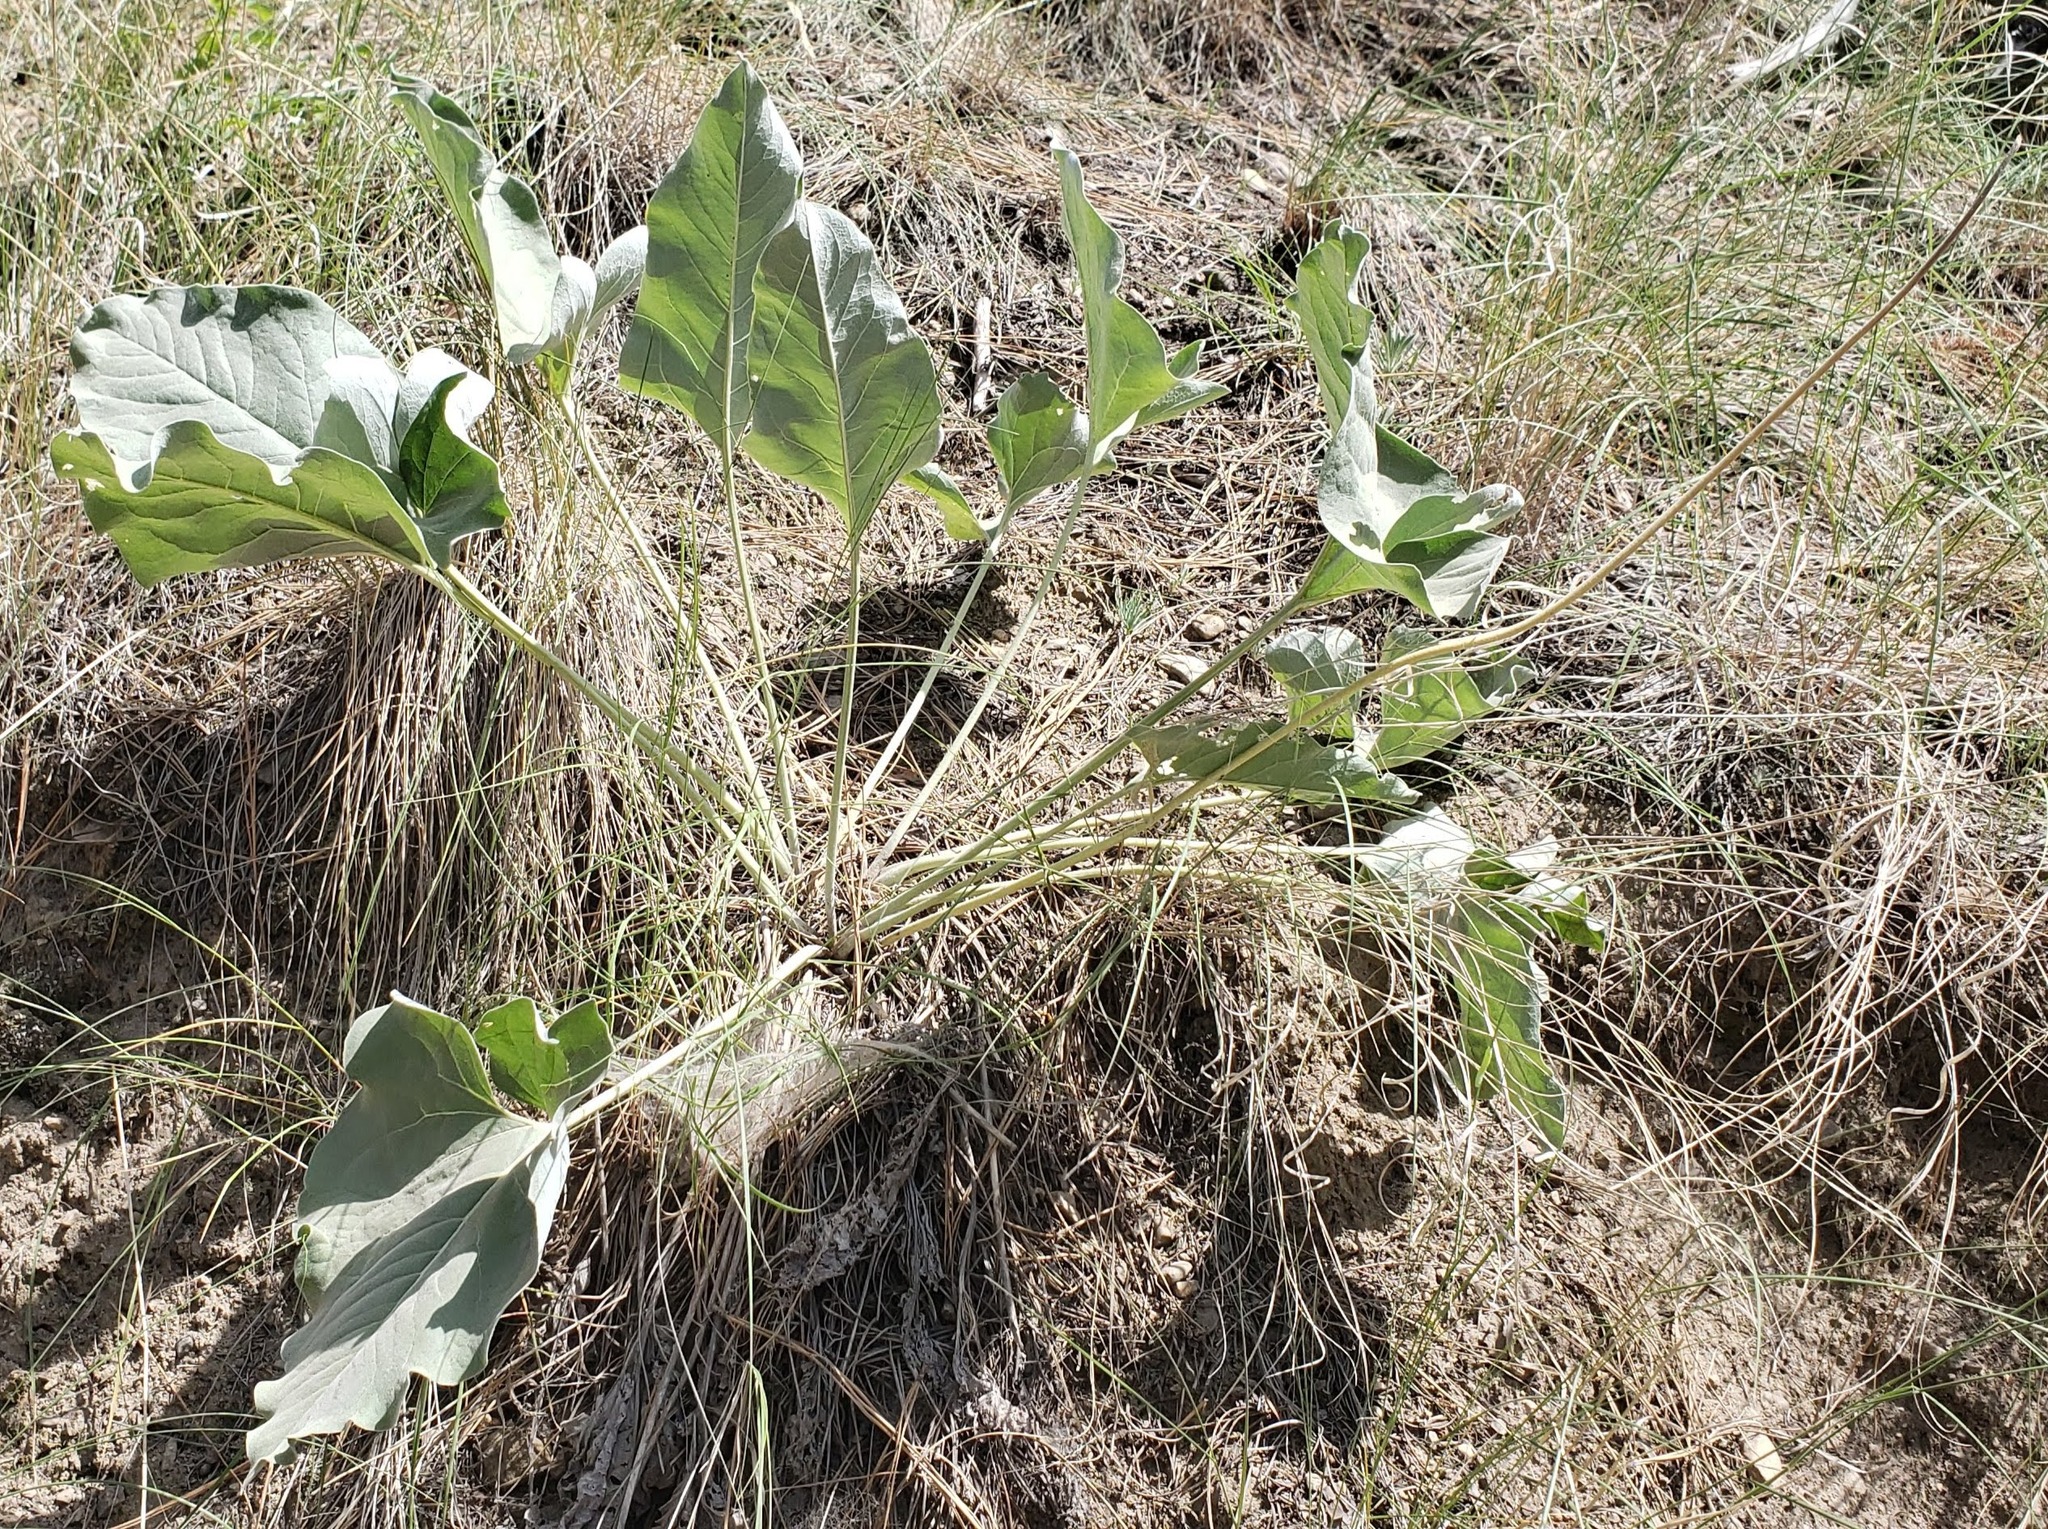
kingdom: Plantae
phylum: Tracheophyta
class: Magnoliopsida
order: Asterales
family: Asteraceae
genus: Wyethia
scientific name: Wyethia sagittata
